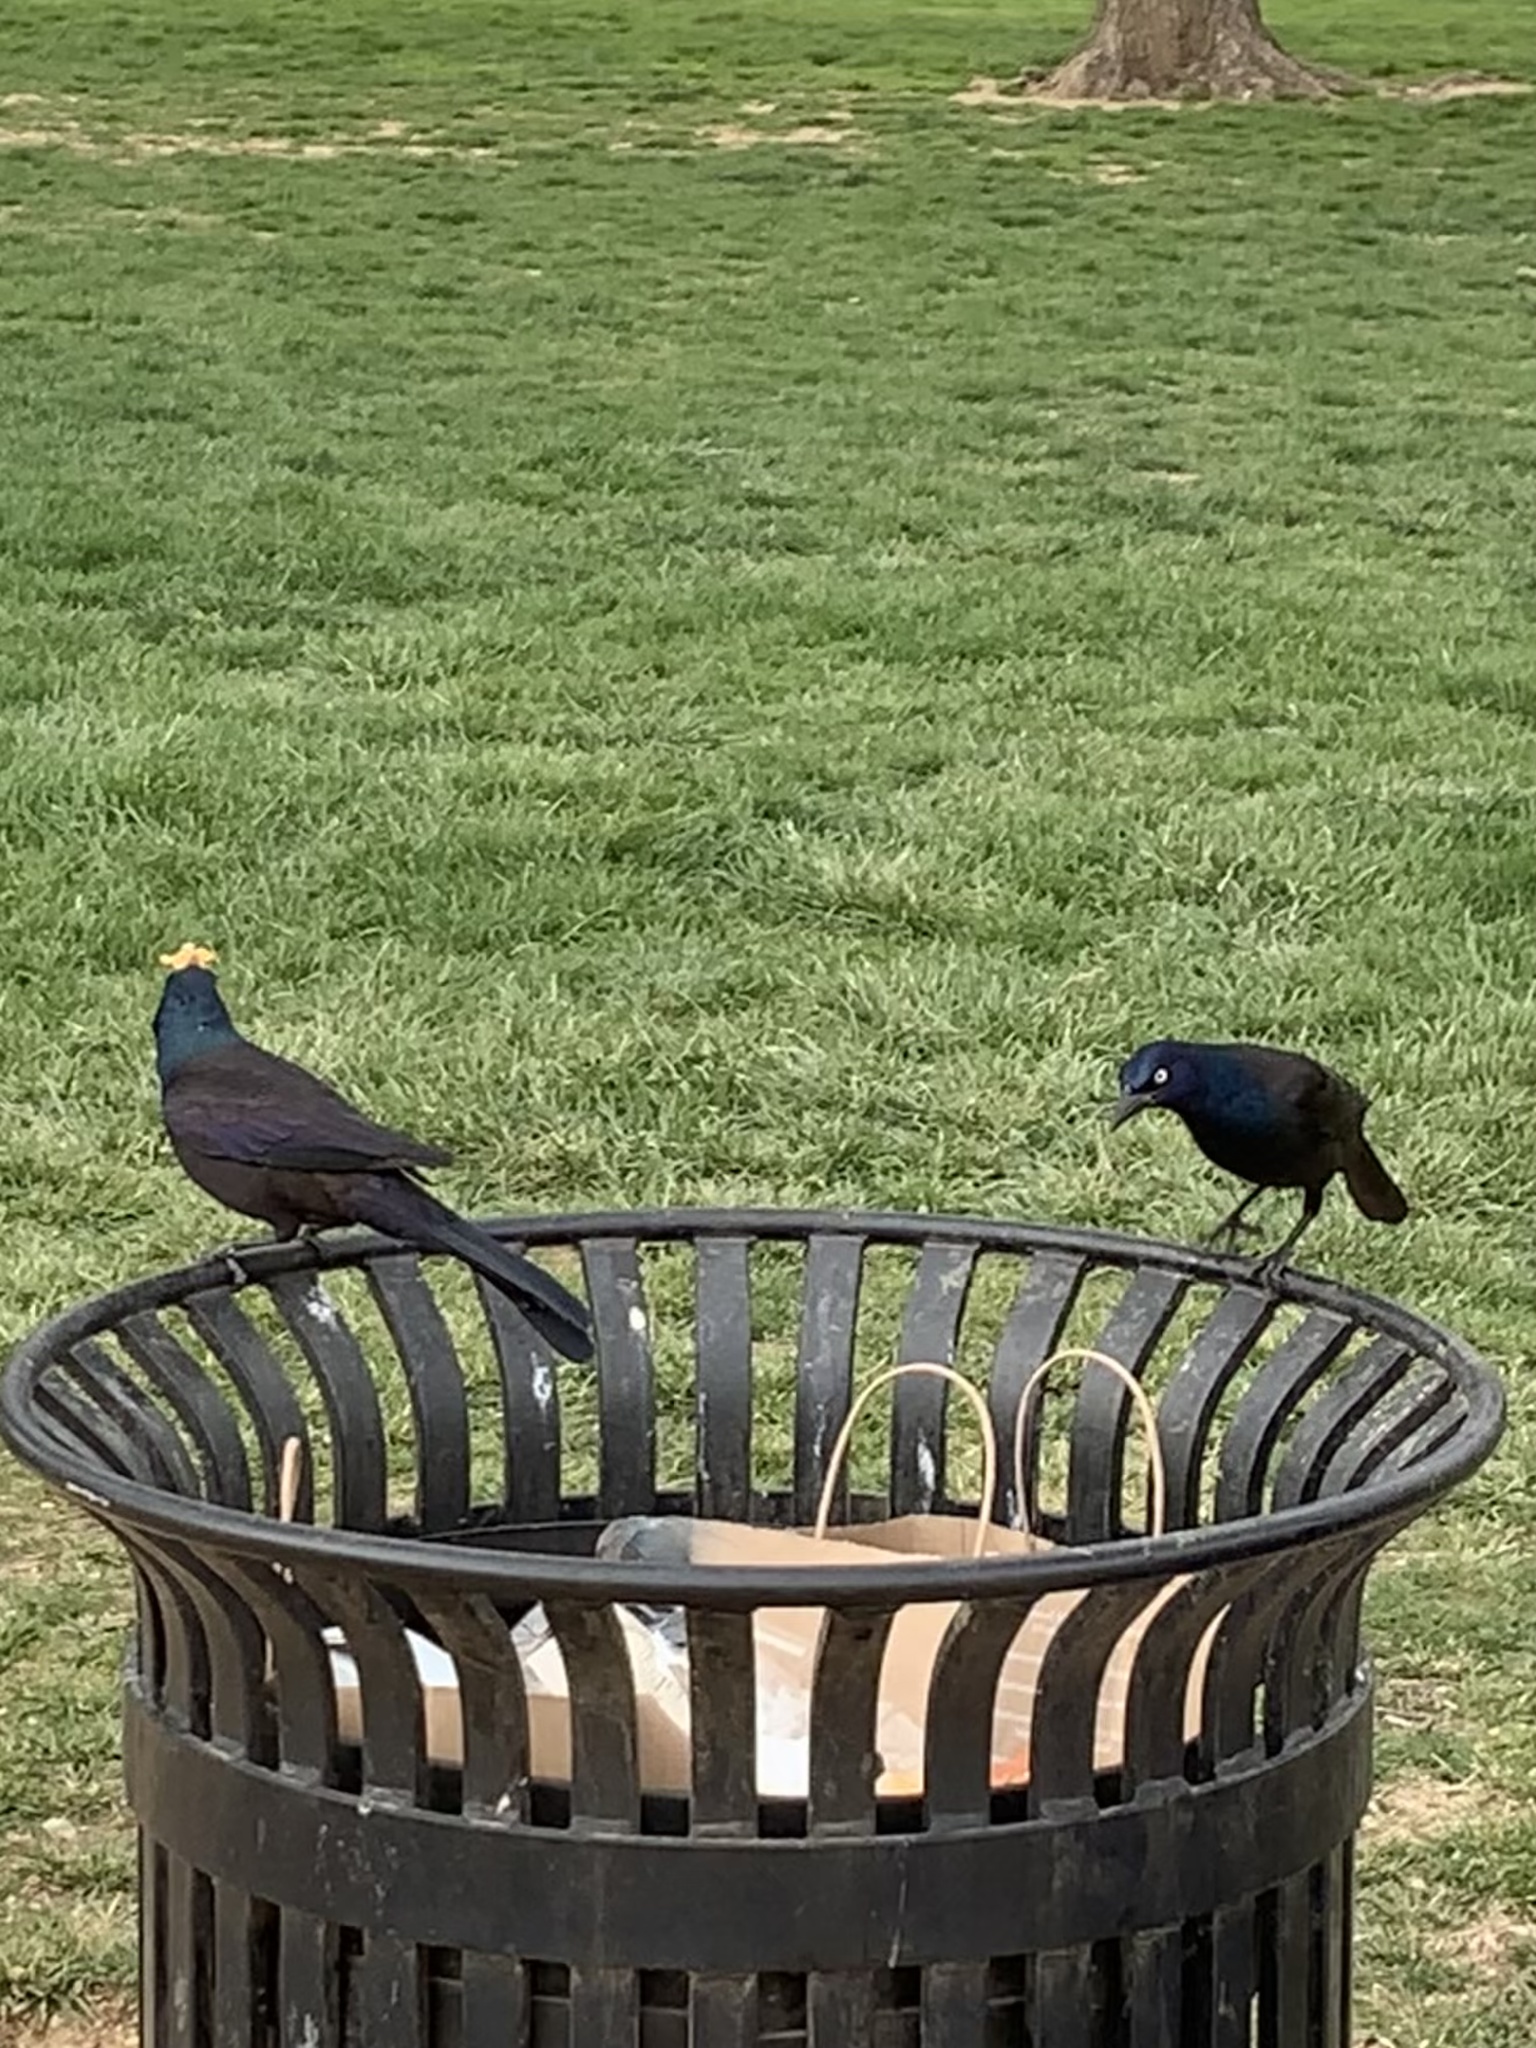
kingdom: Animalia
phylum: Chordata
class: Aves
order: Passeriformes
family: Icteridae
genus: Quiscalus
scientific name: Quiscalus quiscula
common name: Common grackle
